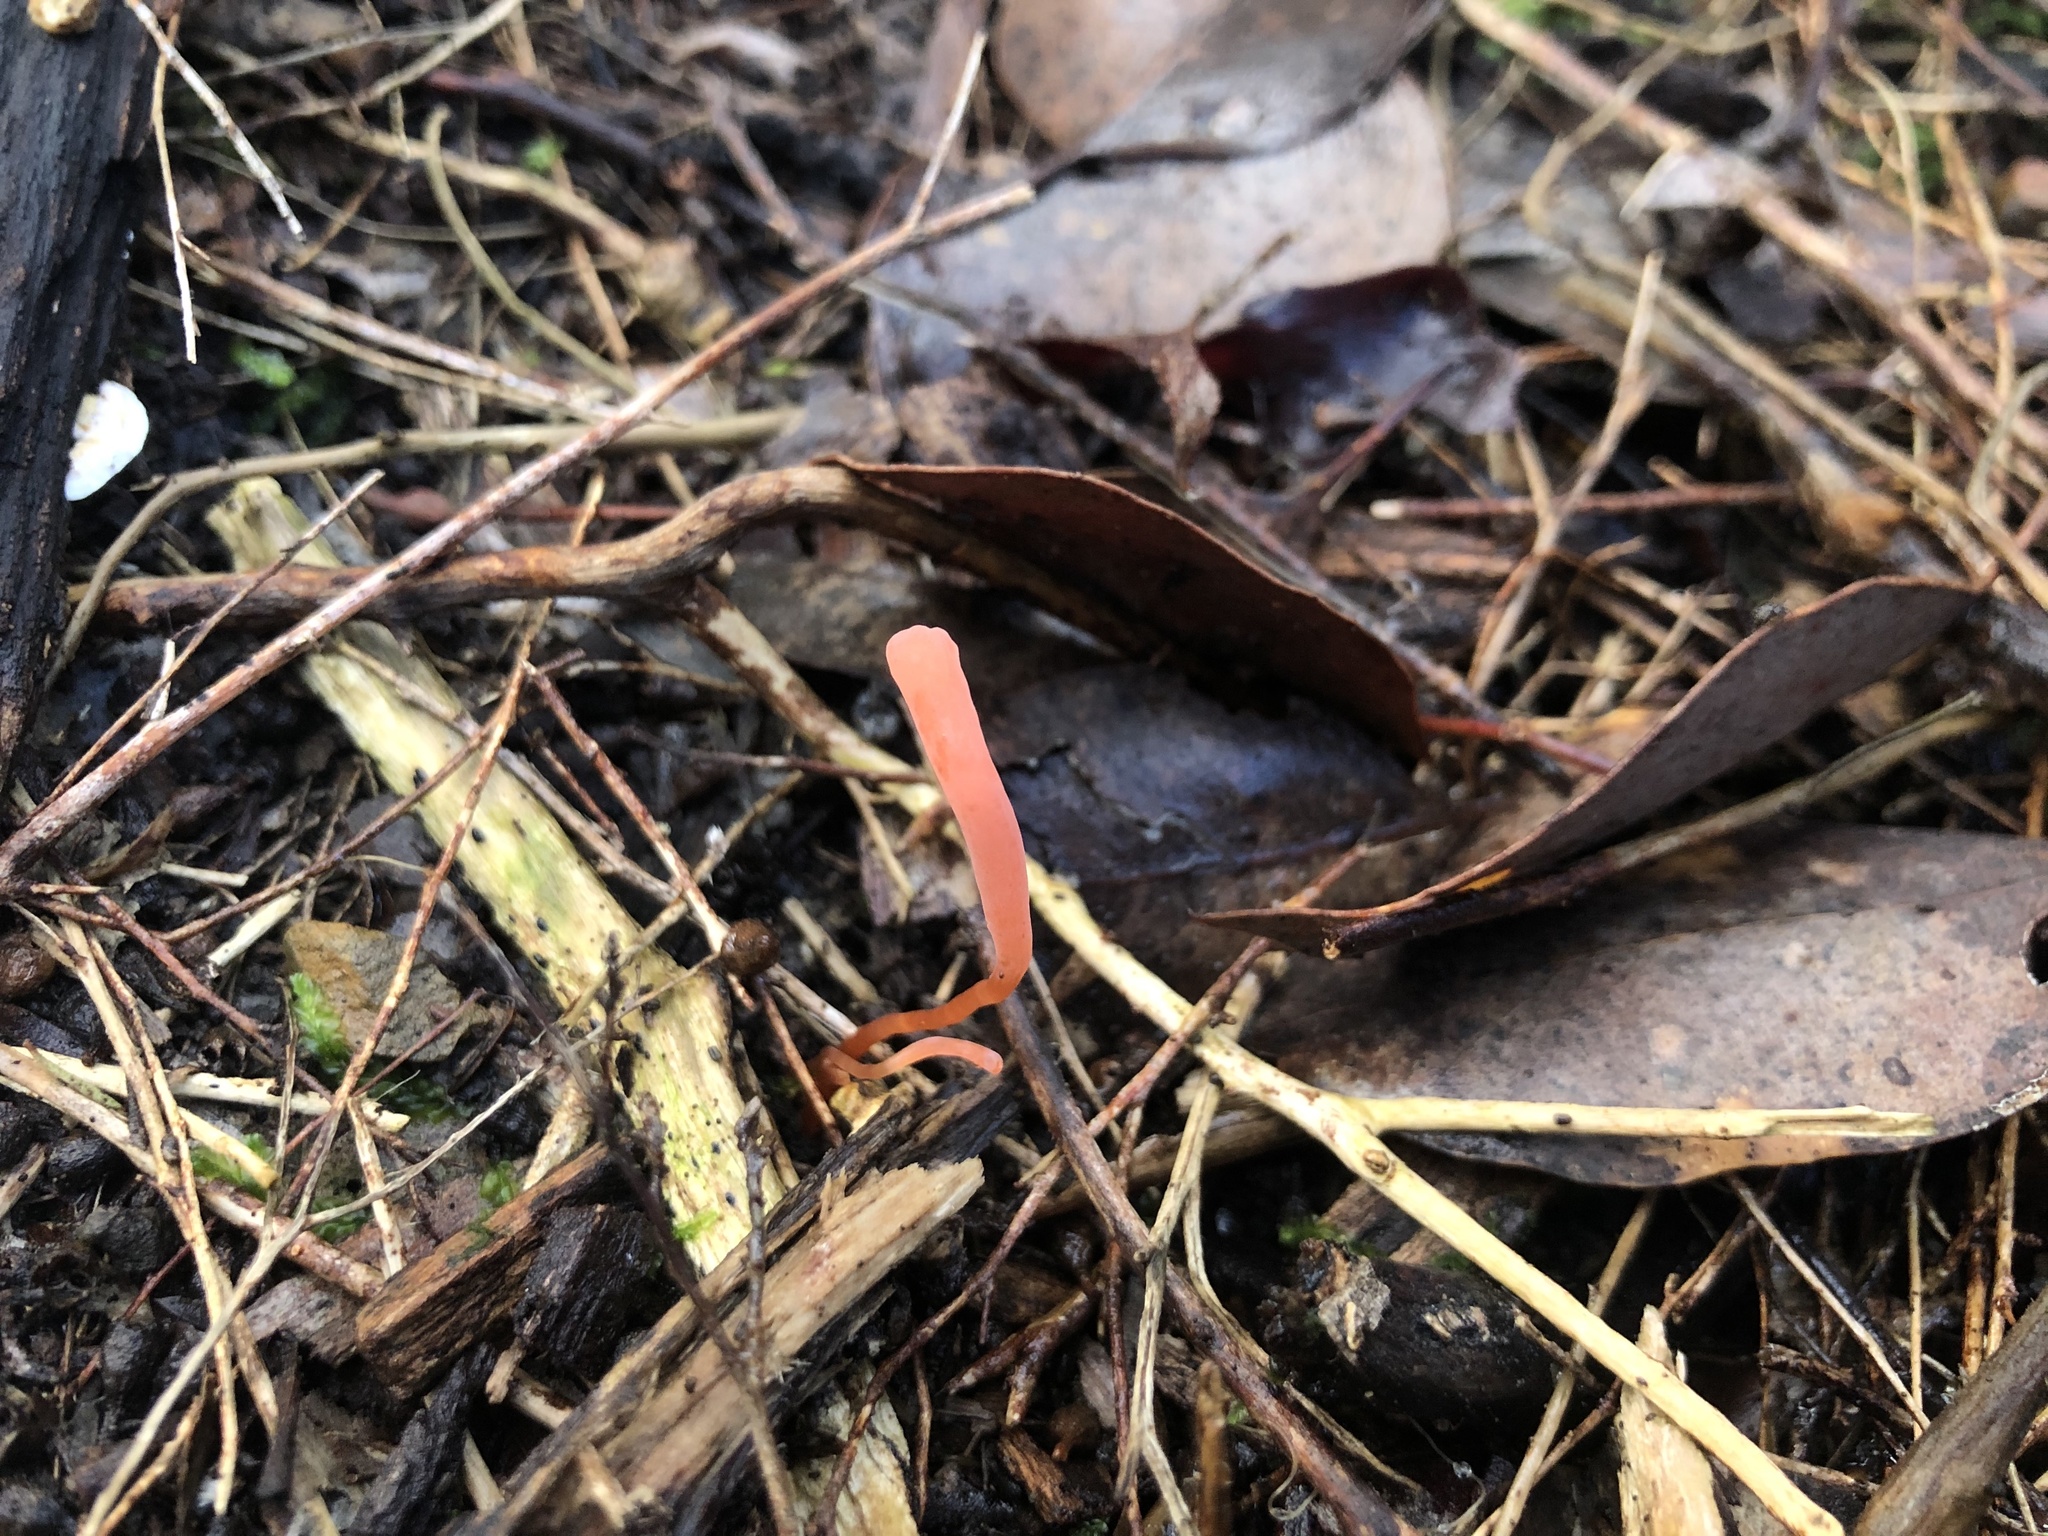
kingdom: Fungi
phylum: Basidiomycota
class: Agaricomycetes
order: Agaricales
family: Clavariaceae
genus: Clavulinopsis
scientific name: Clavulinopsis corallinorosacea
